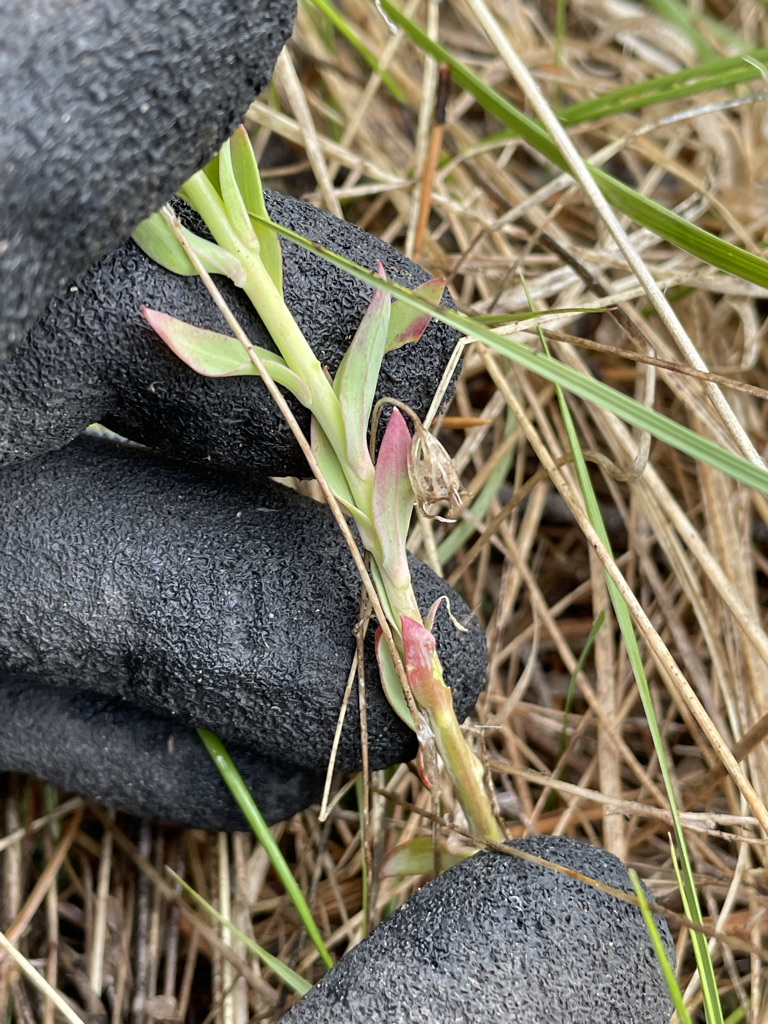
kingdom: Plantae
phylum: Tracheophyta
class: Magnoliopsida
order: Santalales
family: Comandraceae
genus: Comandra
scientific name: Comandra umbellata
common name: Bastard toadflax
